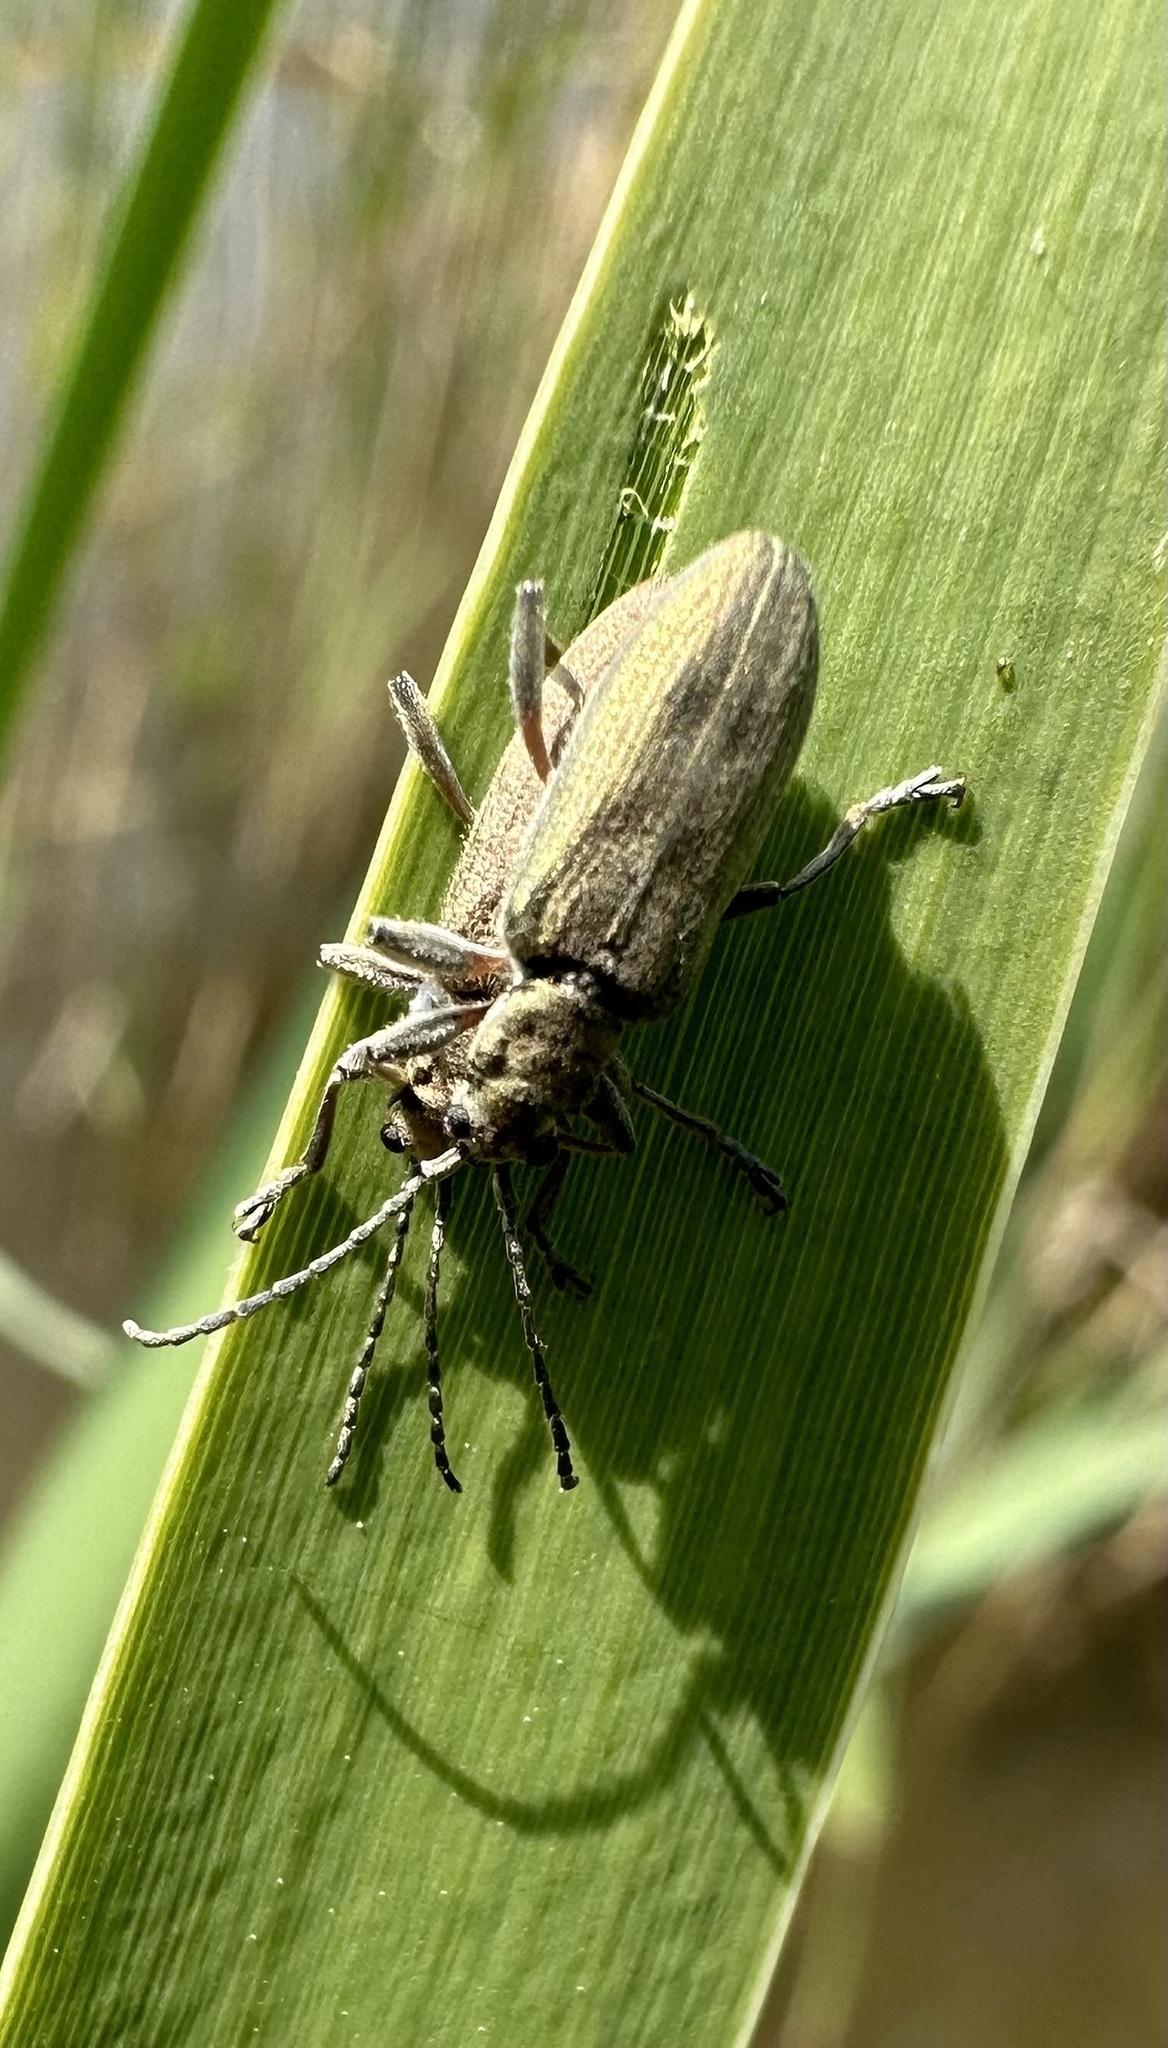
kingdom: Animalia
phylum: Arthropoda
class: Insecta
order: Coleoptera
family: Chrysomelidae
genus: Donacia
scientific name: Donacia cinerea
